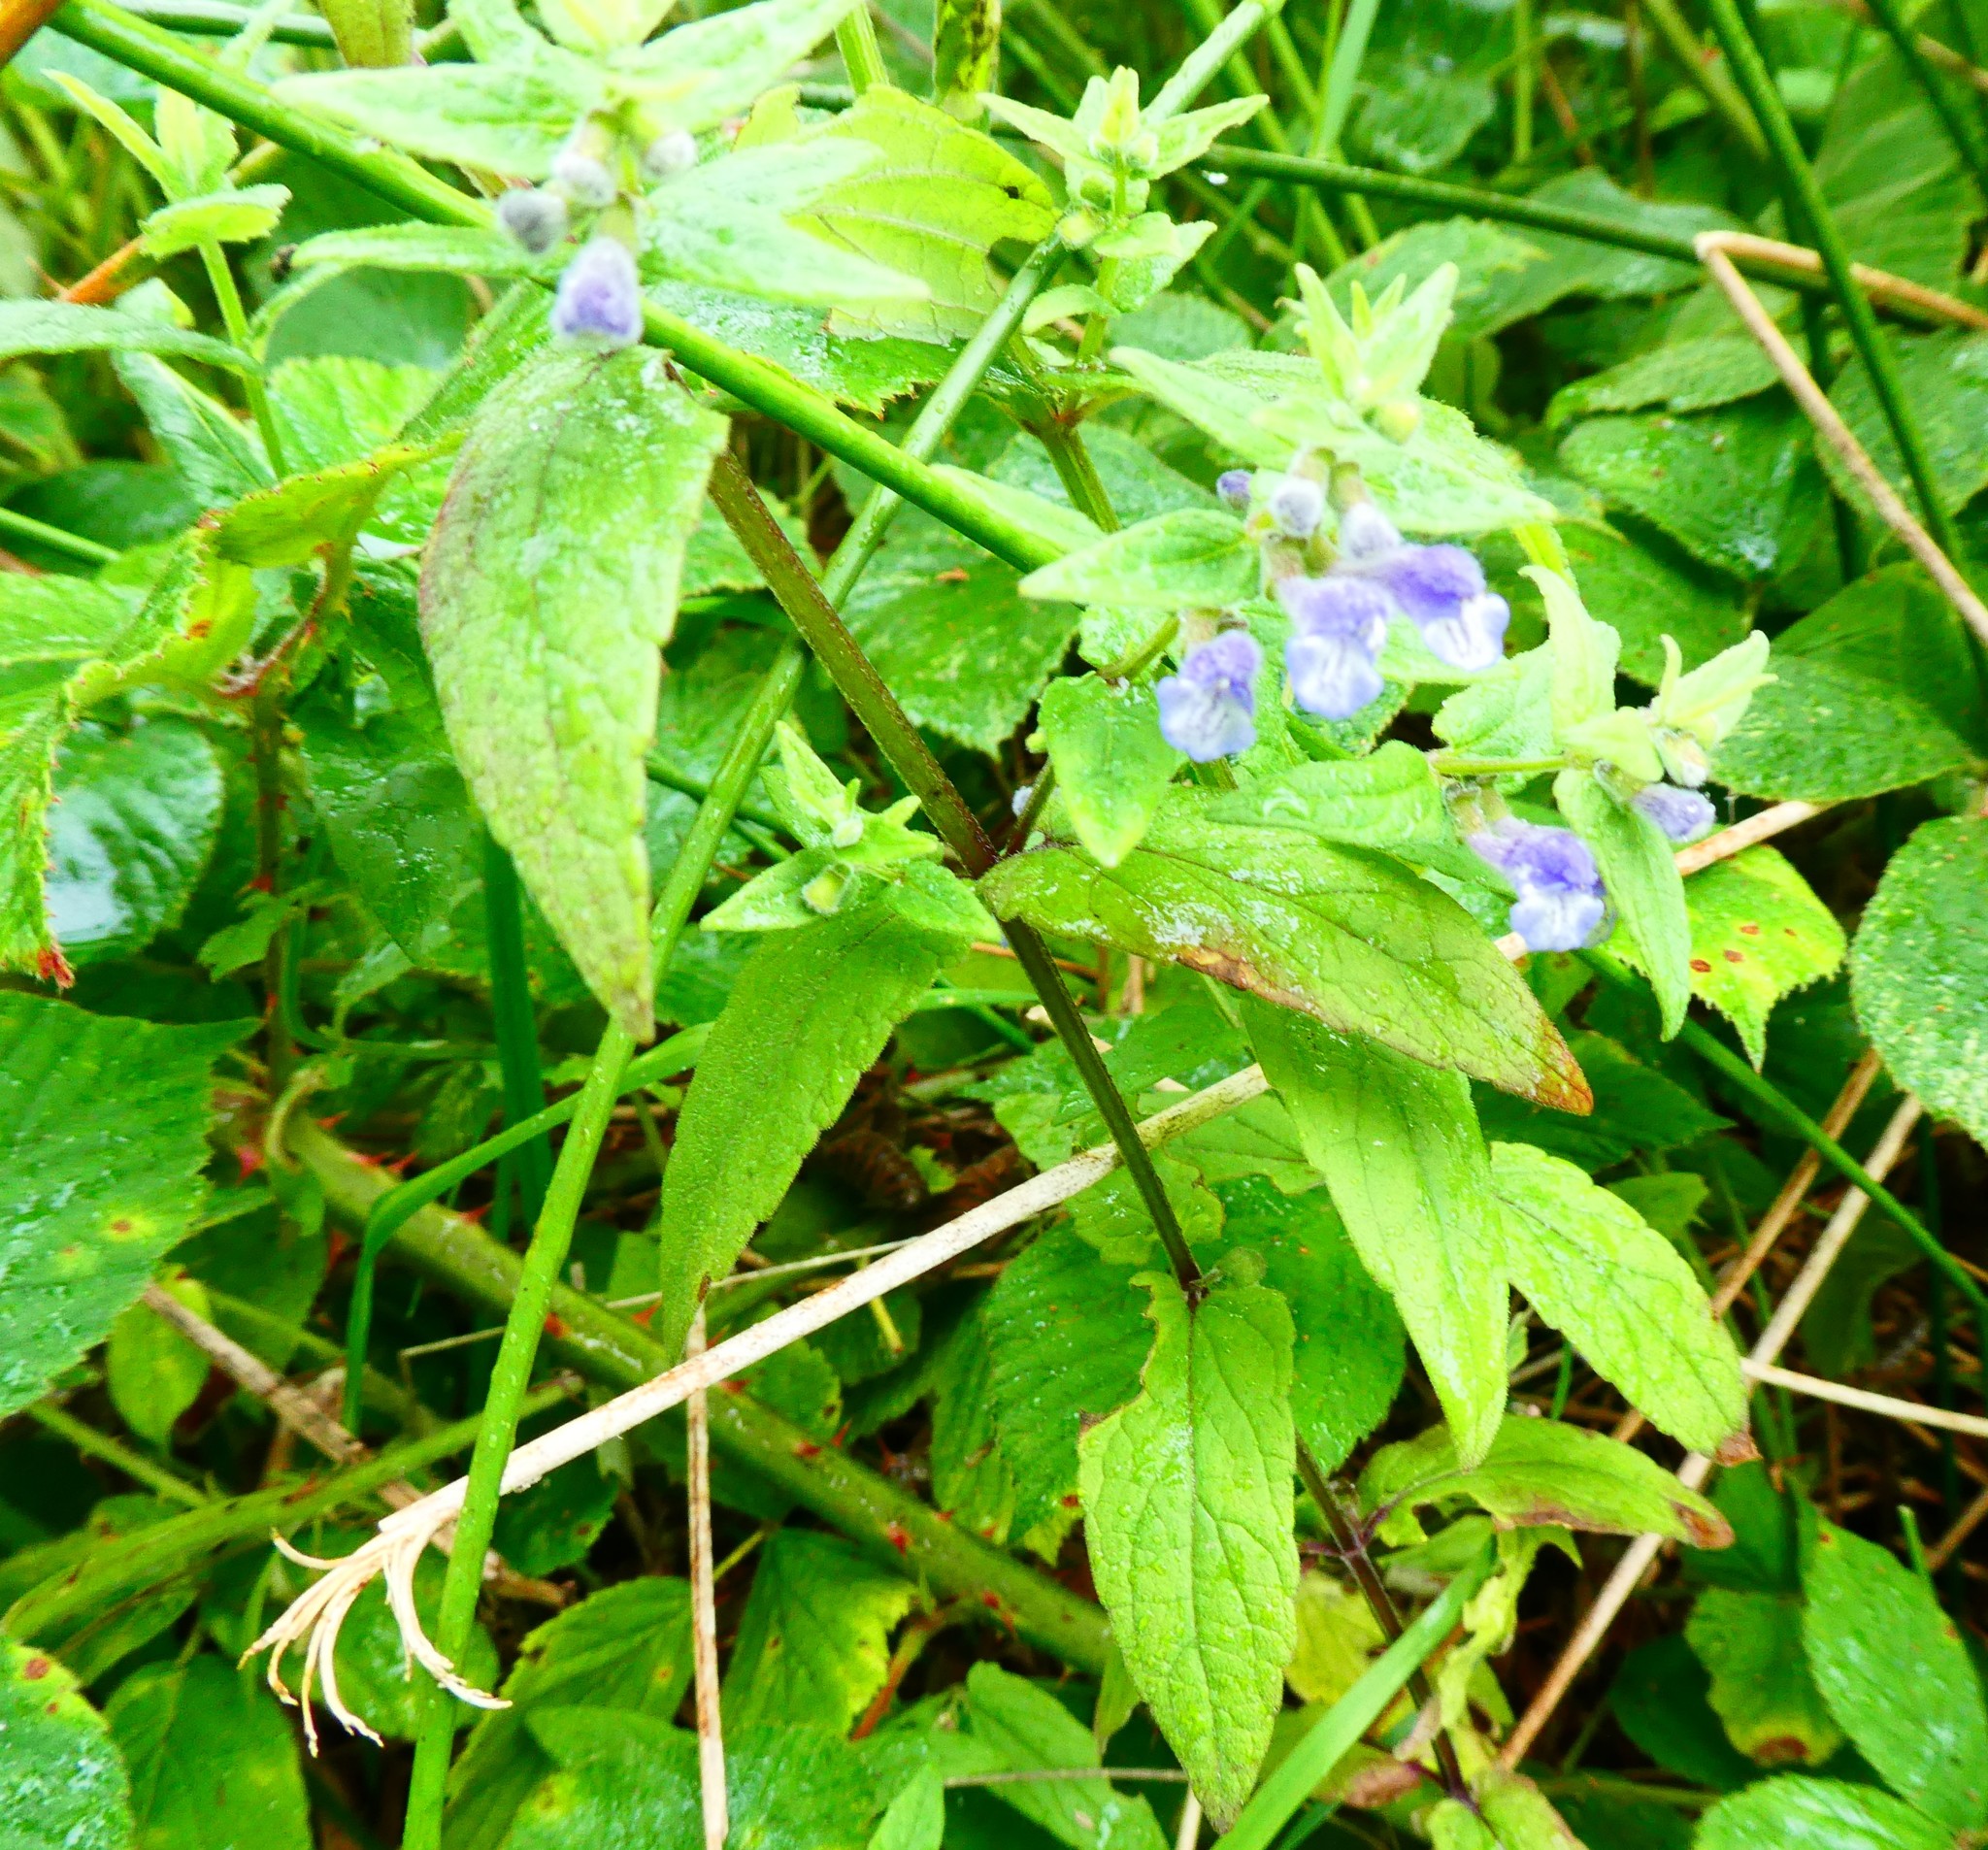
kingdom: Plantae
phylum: Tracheophyta
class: Magnoliopsida
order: Lamiales
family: Lamiaceae
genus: Scutellaria
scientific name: Scutellaria galericulata
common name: Skullcap
